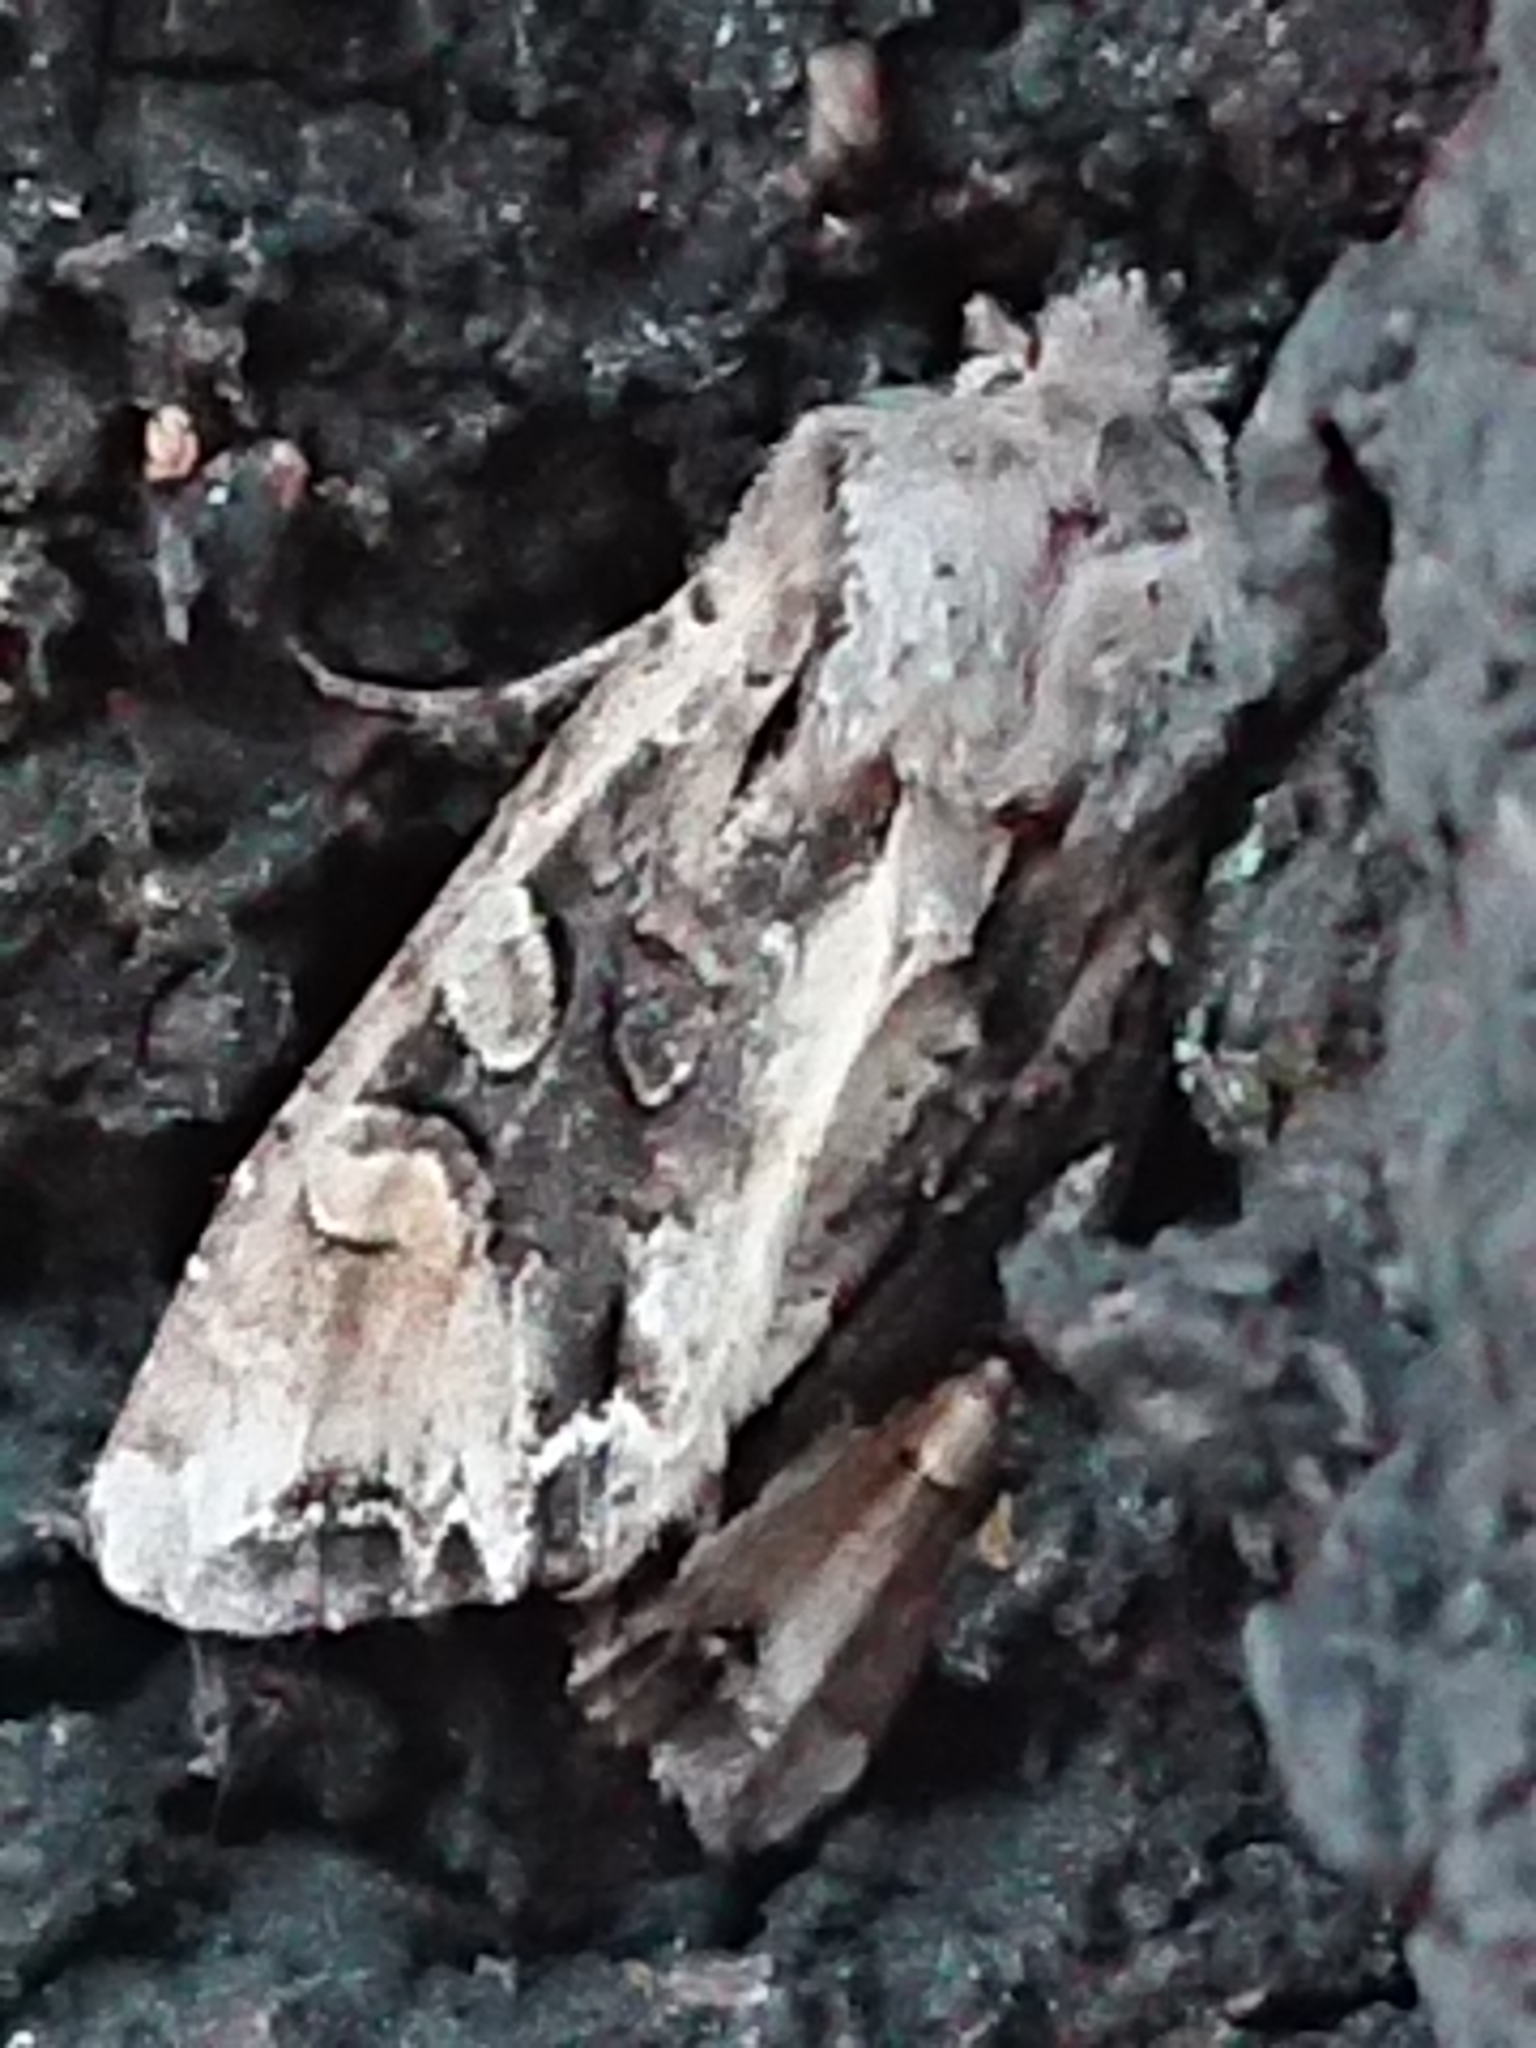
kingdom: Animalia
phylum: Arthropoda
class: Insecta
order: Lepidoptera
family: Noctuidae
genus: Ichneutica
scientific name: Ichneutica
